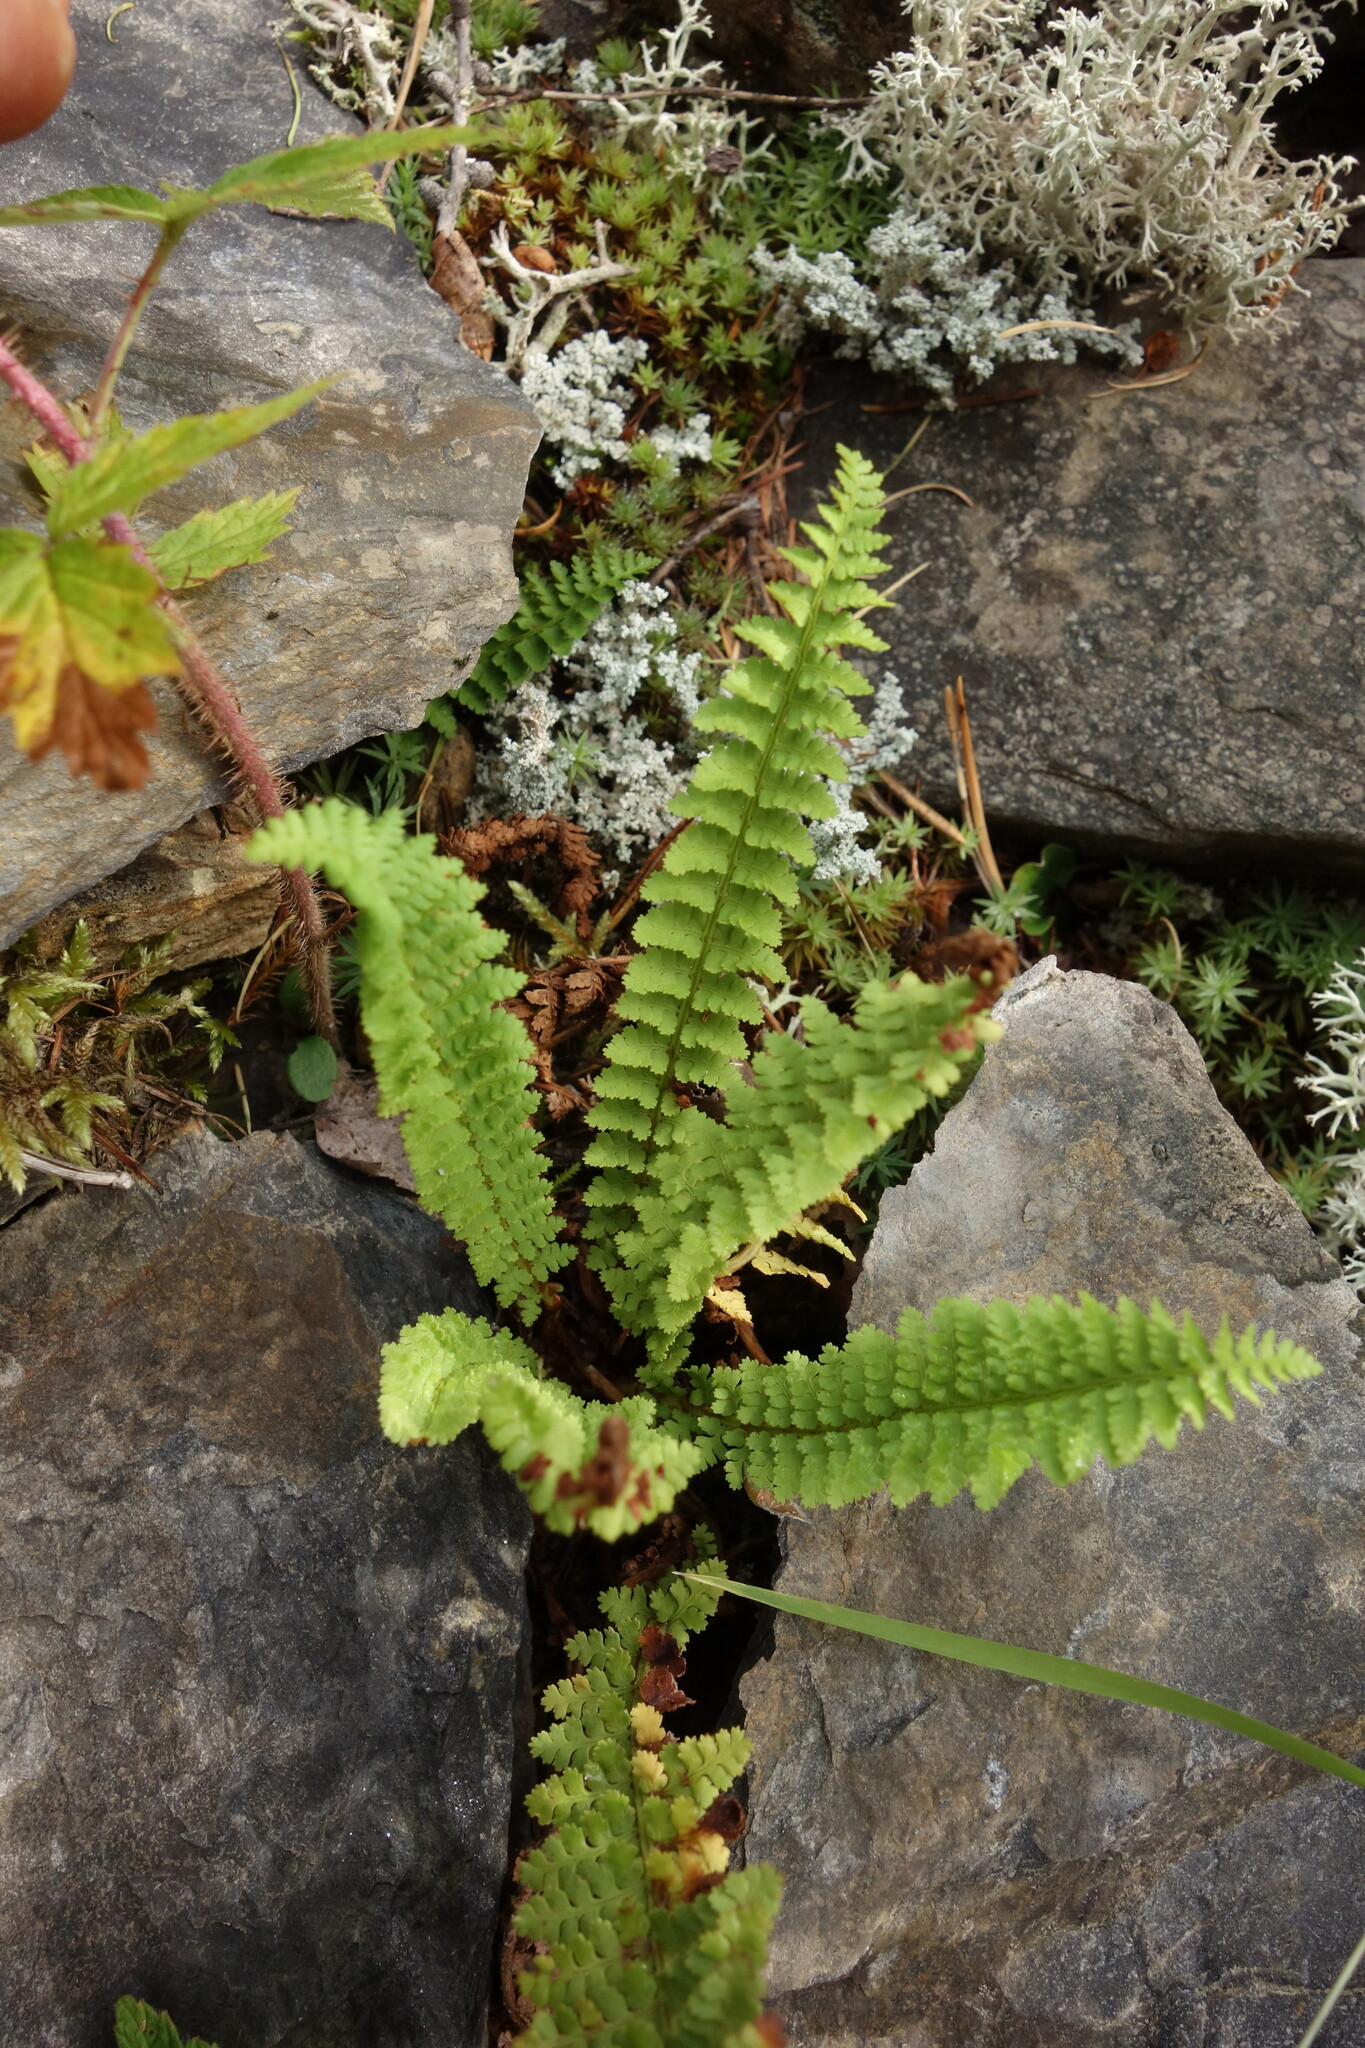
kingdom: Plantae
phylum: Tracheophyta
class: Polypodiopsida
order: Polypodiales
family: Dryopteridaceae
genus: Dryopteris
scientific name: Dryopteris fragrans
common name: Fragrant wood fern
